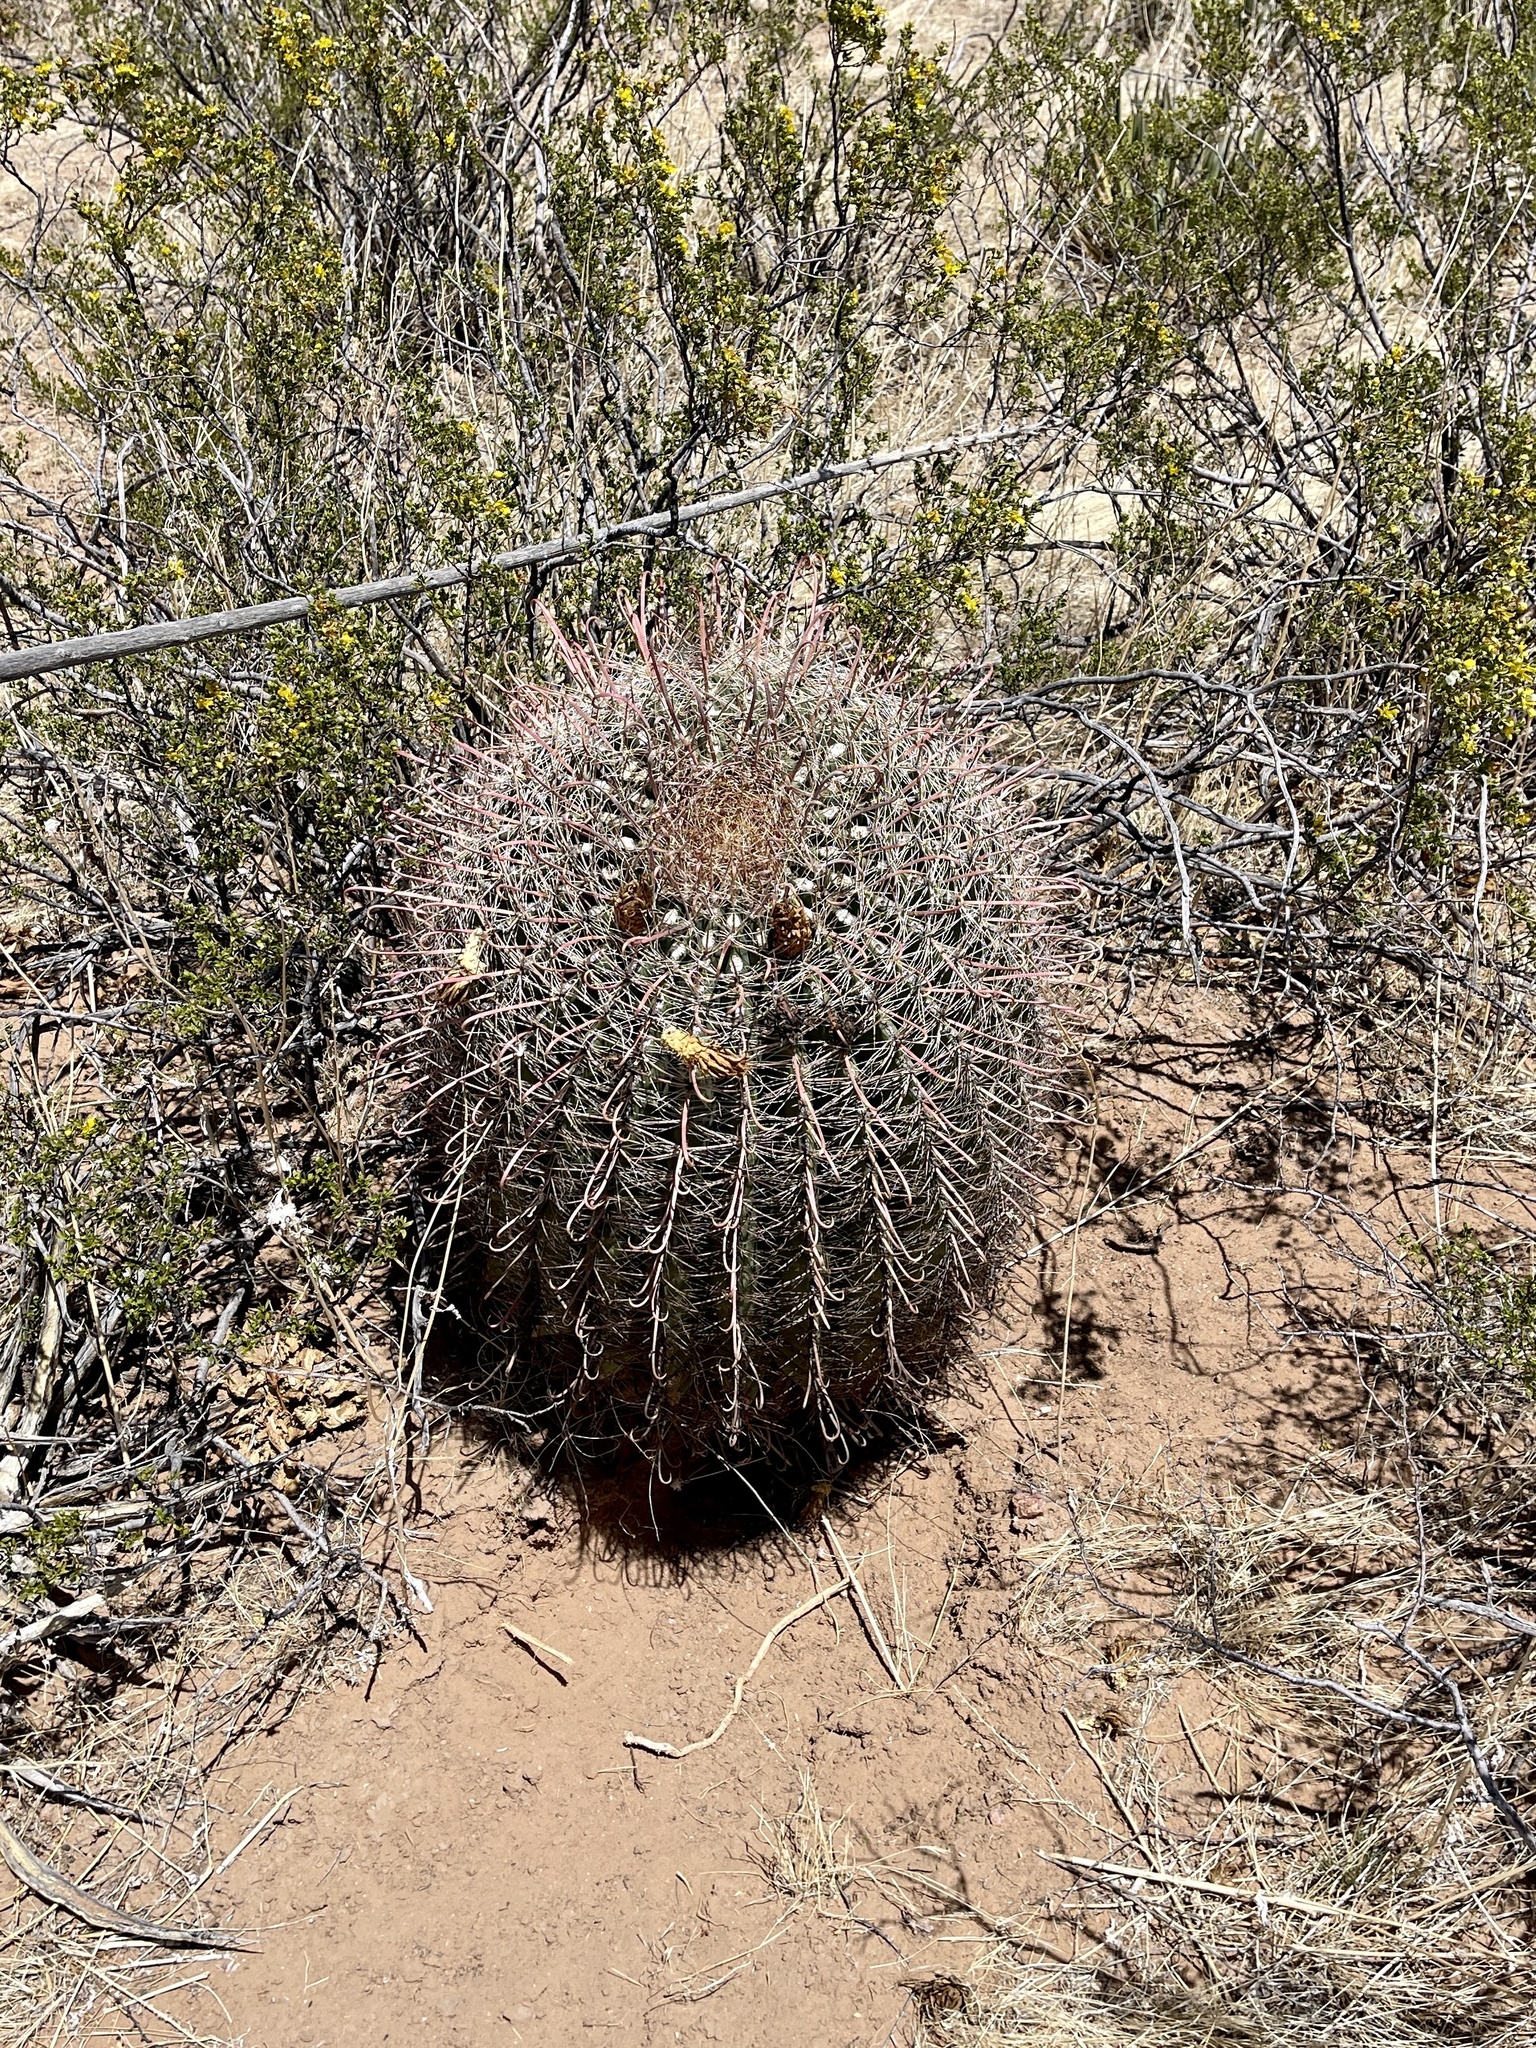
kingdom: Plantae
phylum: Tracheophyta
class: Magnoliopsida
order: Caryophyllales
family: Cactaceae
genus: Ferocactus
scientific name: Ferocactus wislizeni
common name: Candy barrel cactus
